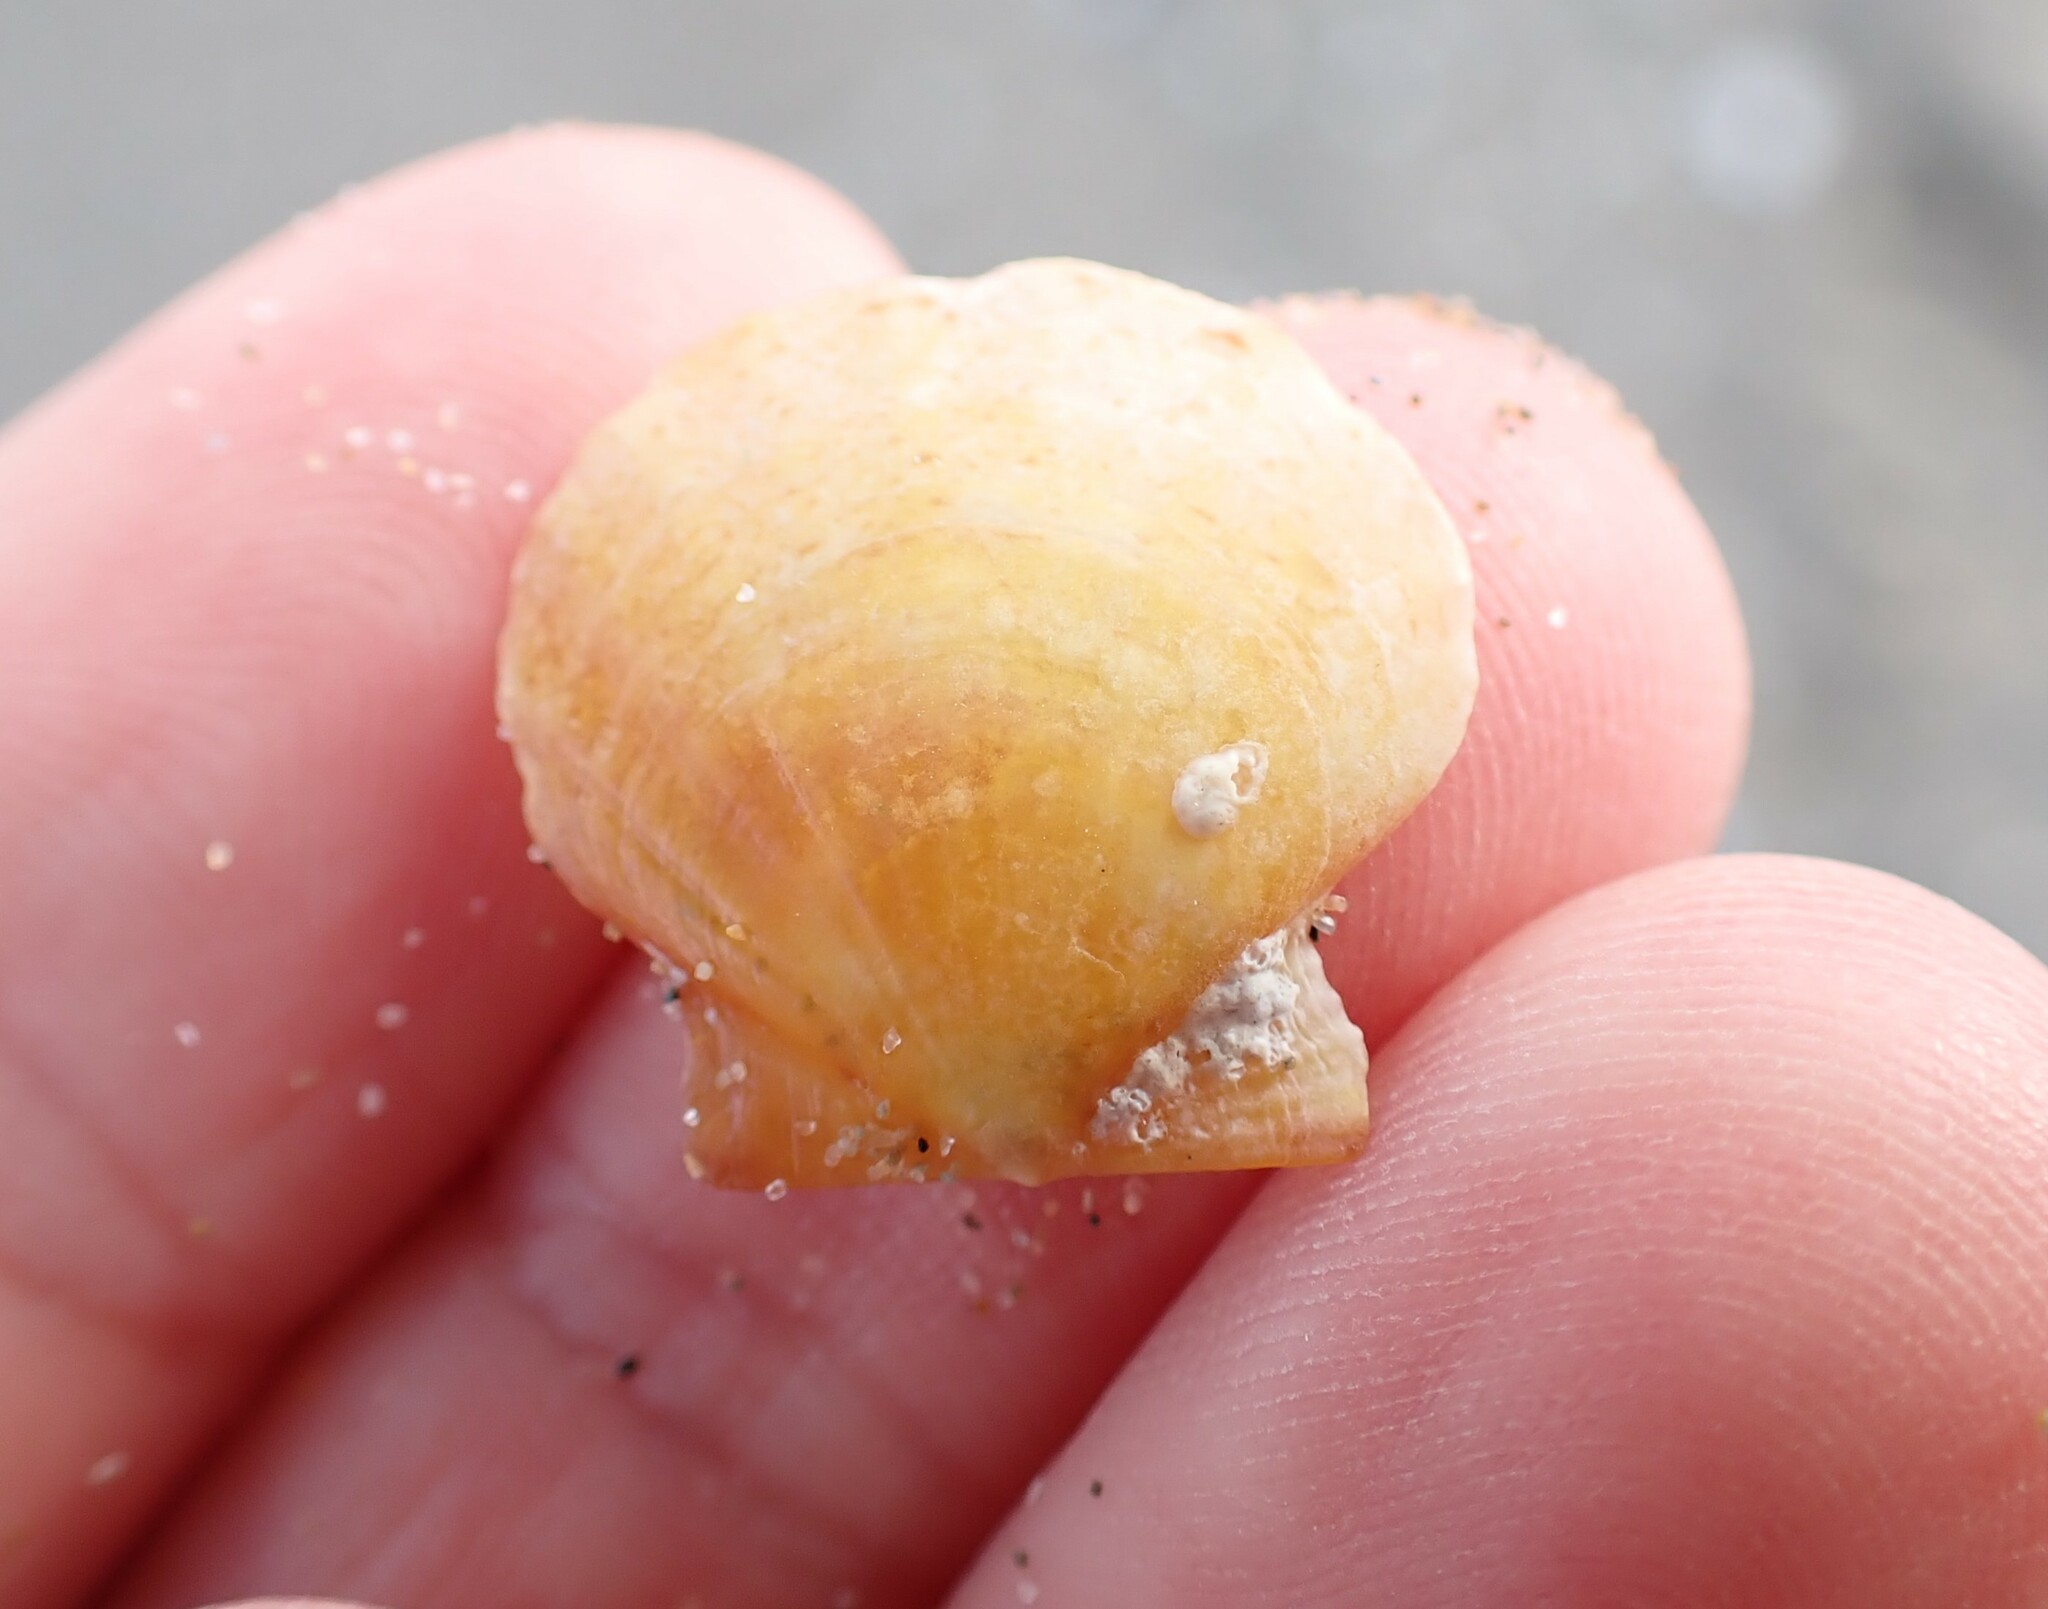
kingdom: Animalia
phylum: Mollusca
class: Bivalvia
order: Pectinida
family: Pectinidae
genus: Flexopecten
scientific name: Flexopecten hyalinus
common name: Hyaline scallop
